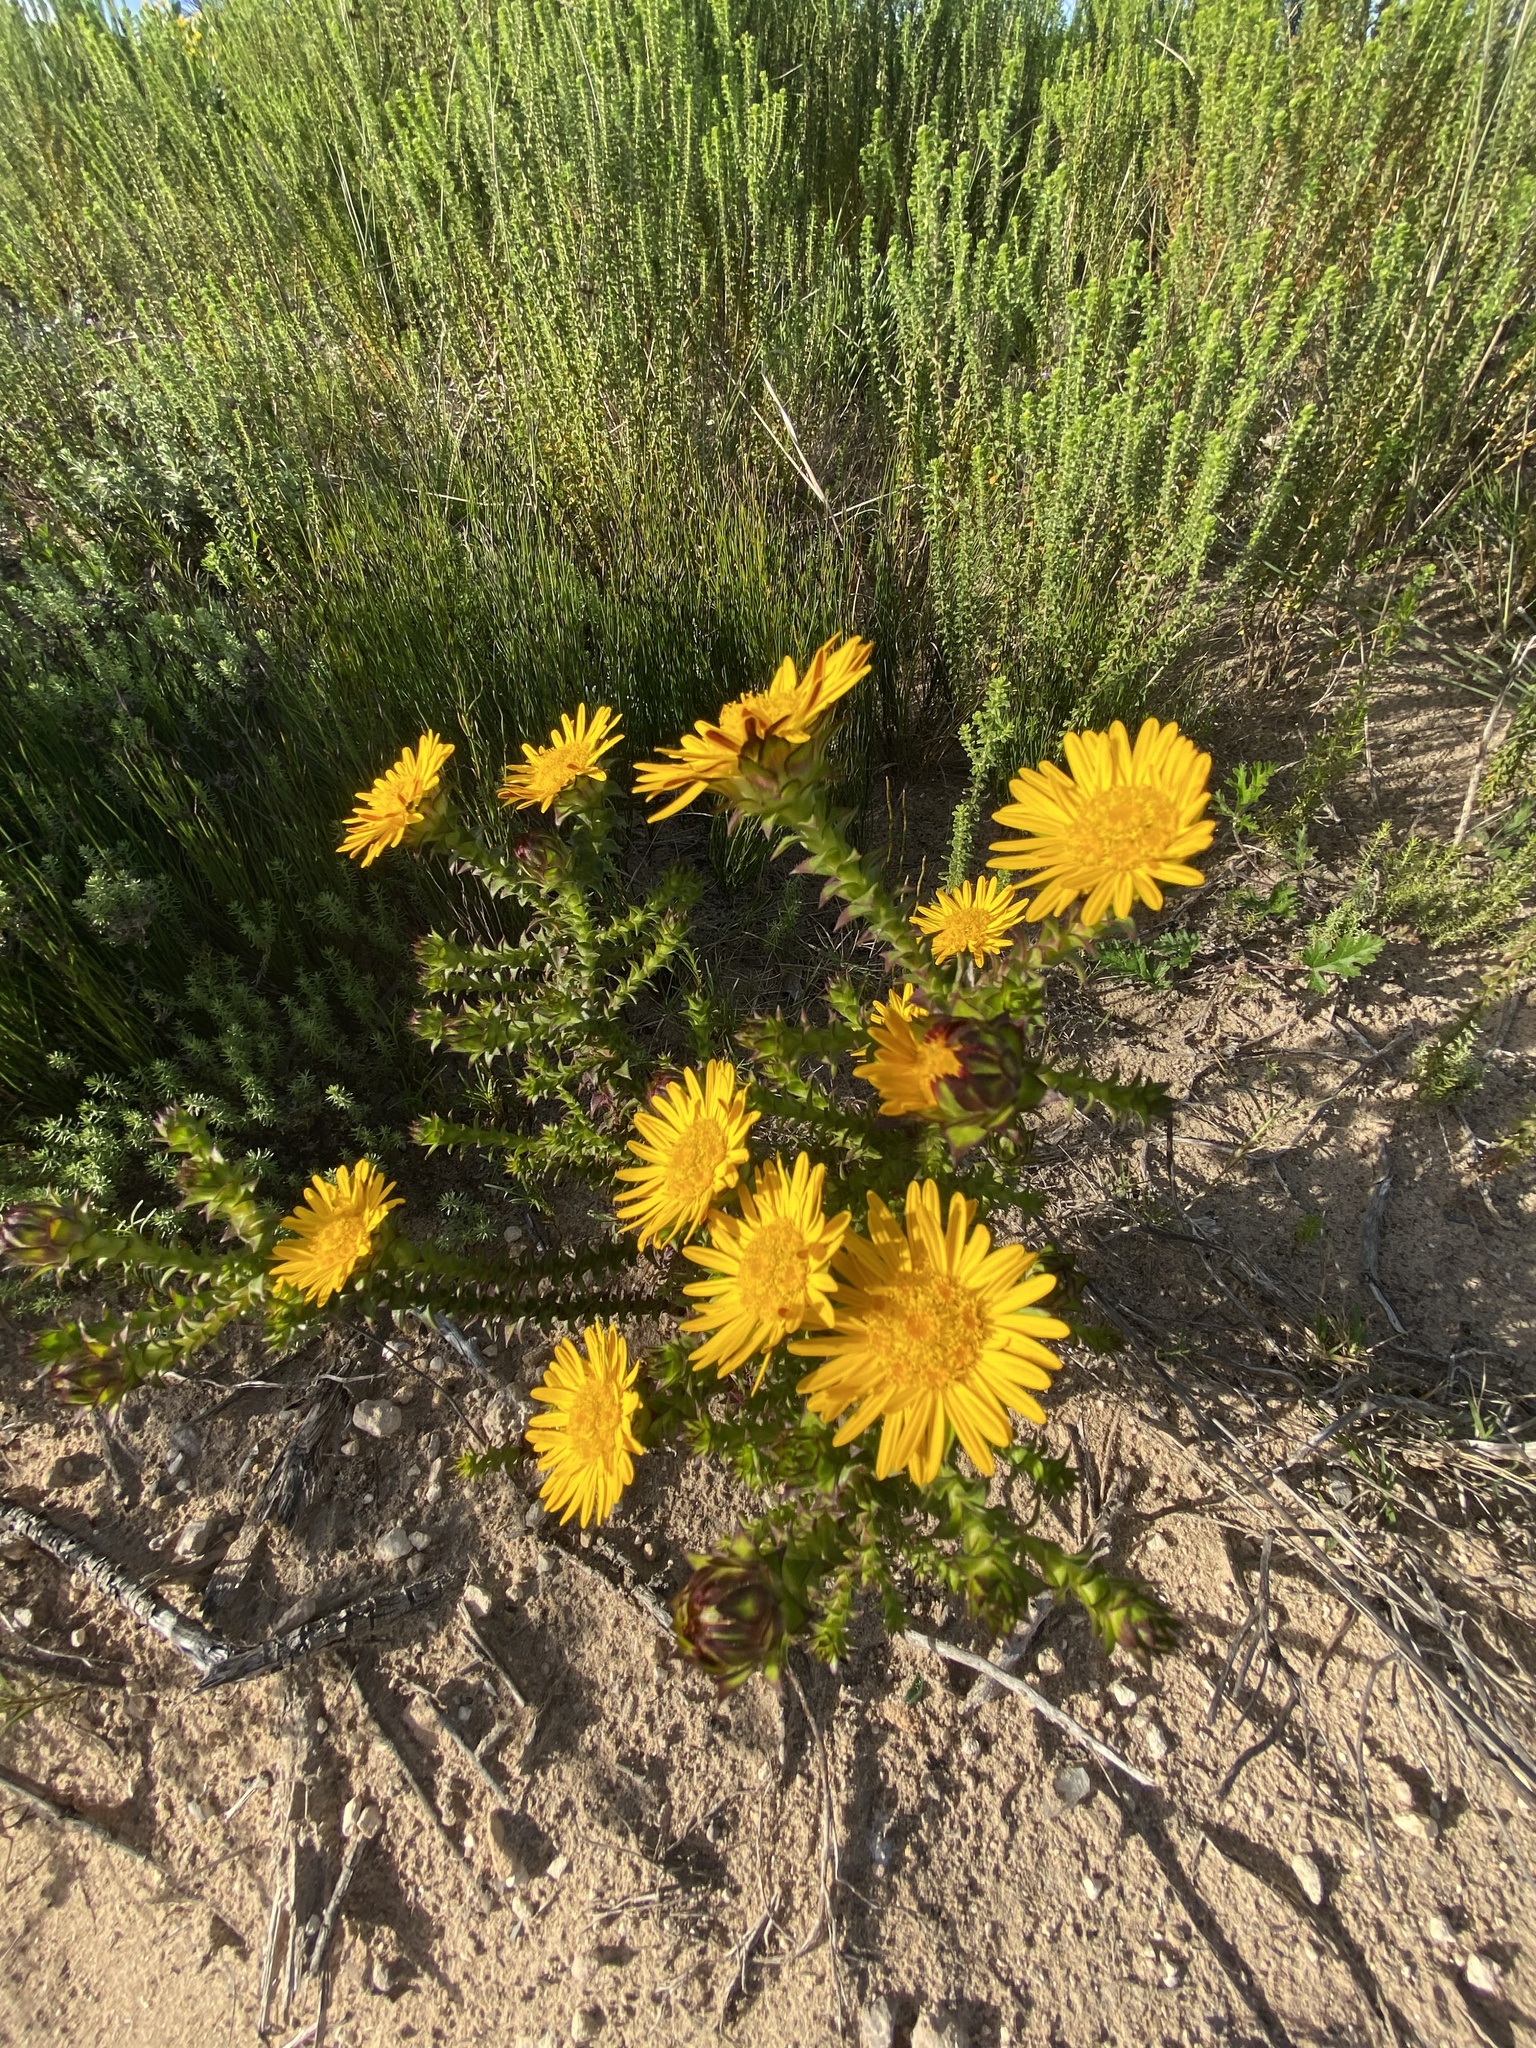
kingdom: Plantae
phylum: Tracheophyta
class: Magnoliopsida
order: Asterales
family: Asteraceae
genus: Oedera
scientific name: Oedera capensis
